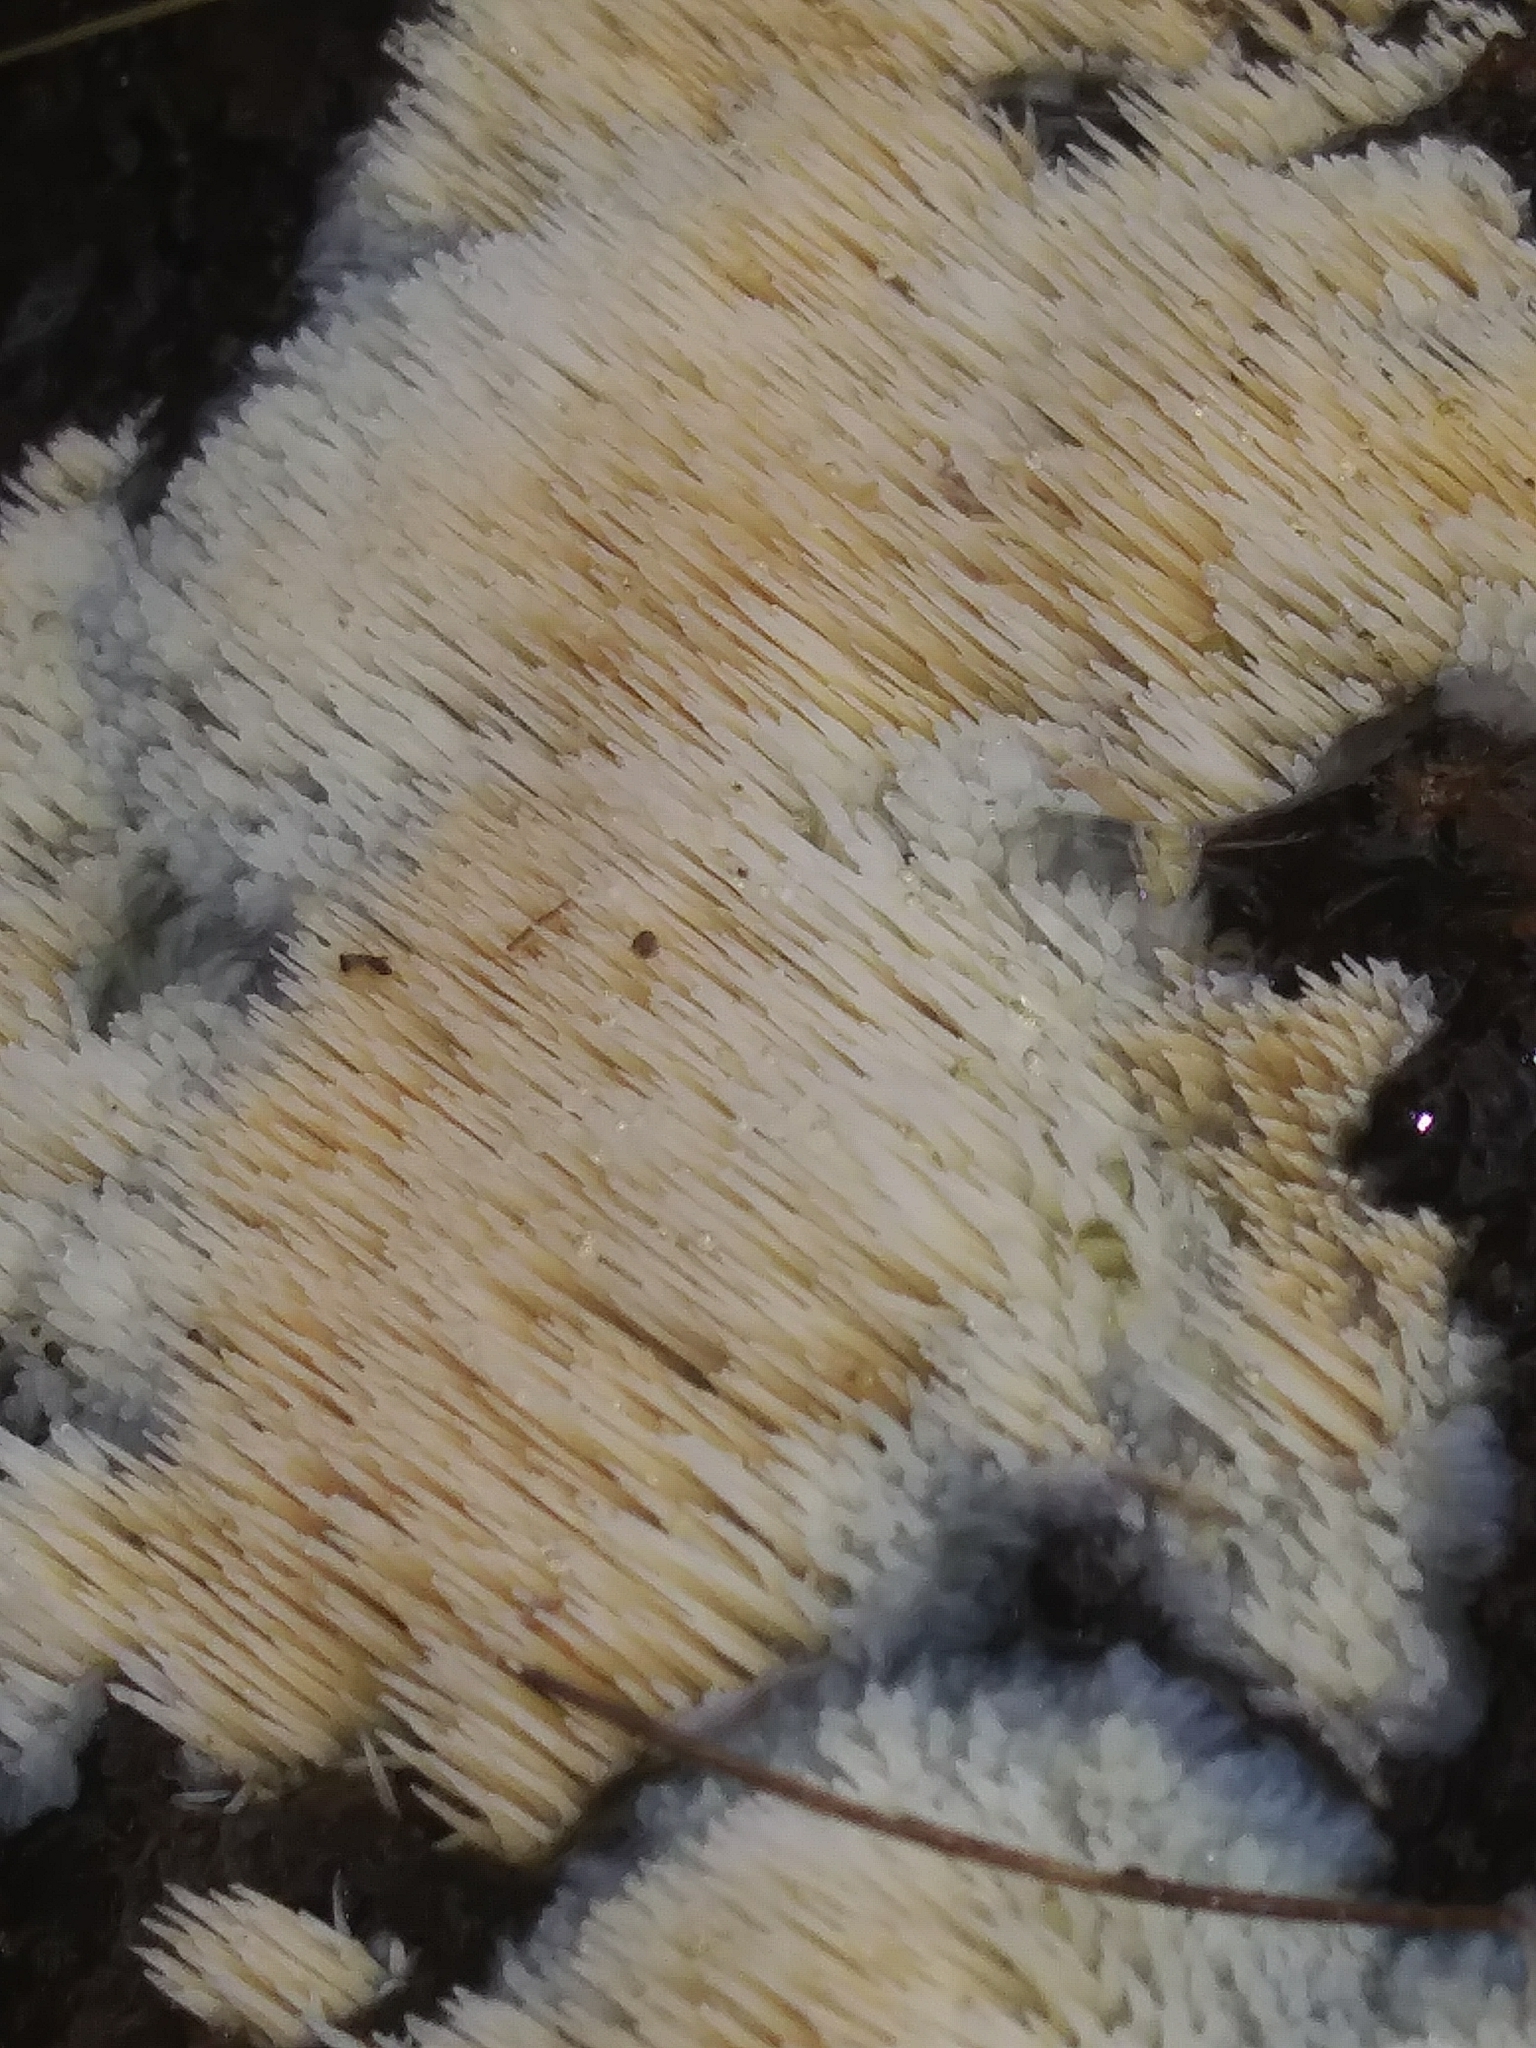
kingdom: Fungi
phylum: Basidiomycota
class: Agaricomycetes
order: Agaricales
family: Radulomycetaceae
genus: Radulomyces
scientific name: Radulomyces copelandii
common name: Asian beauty
